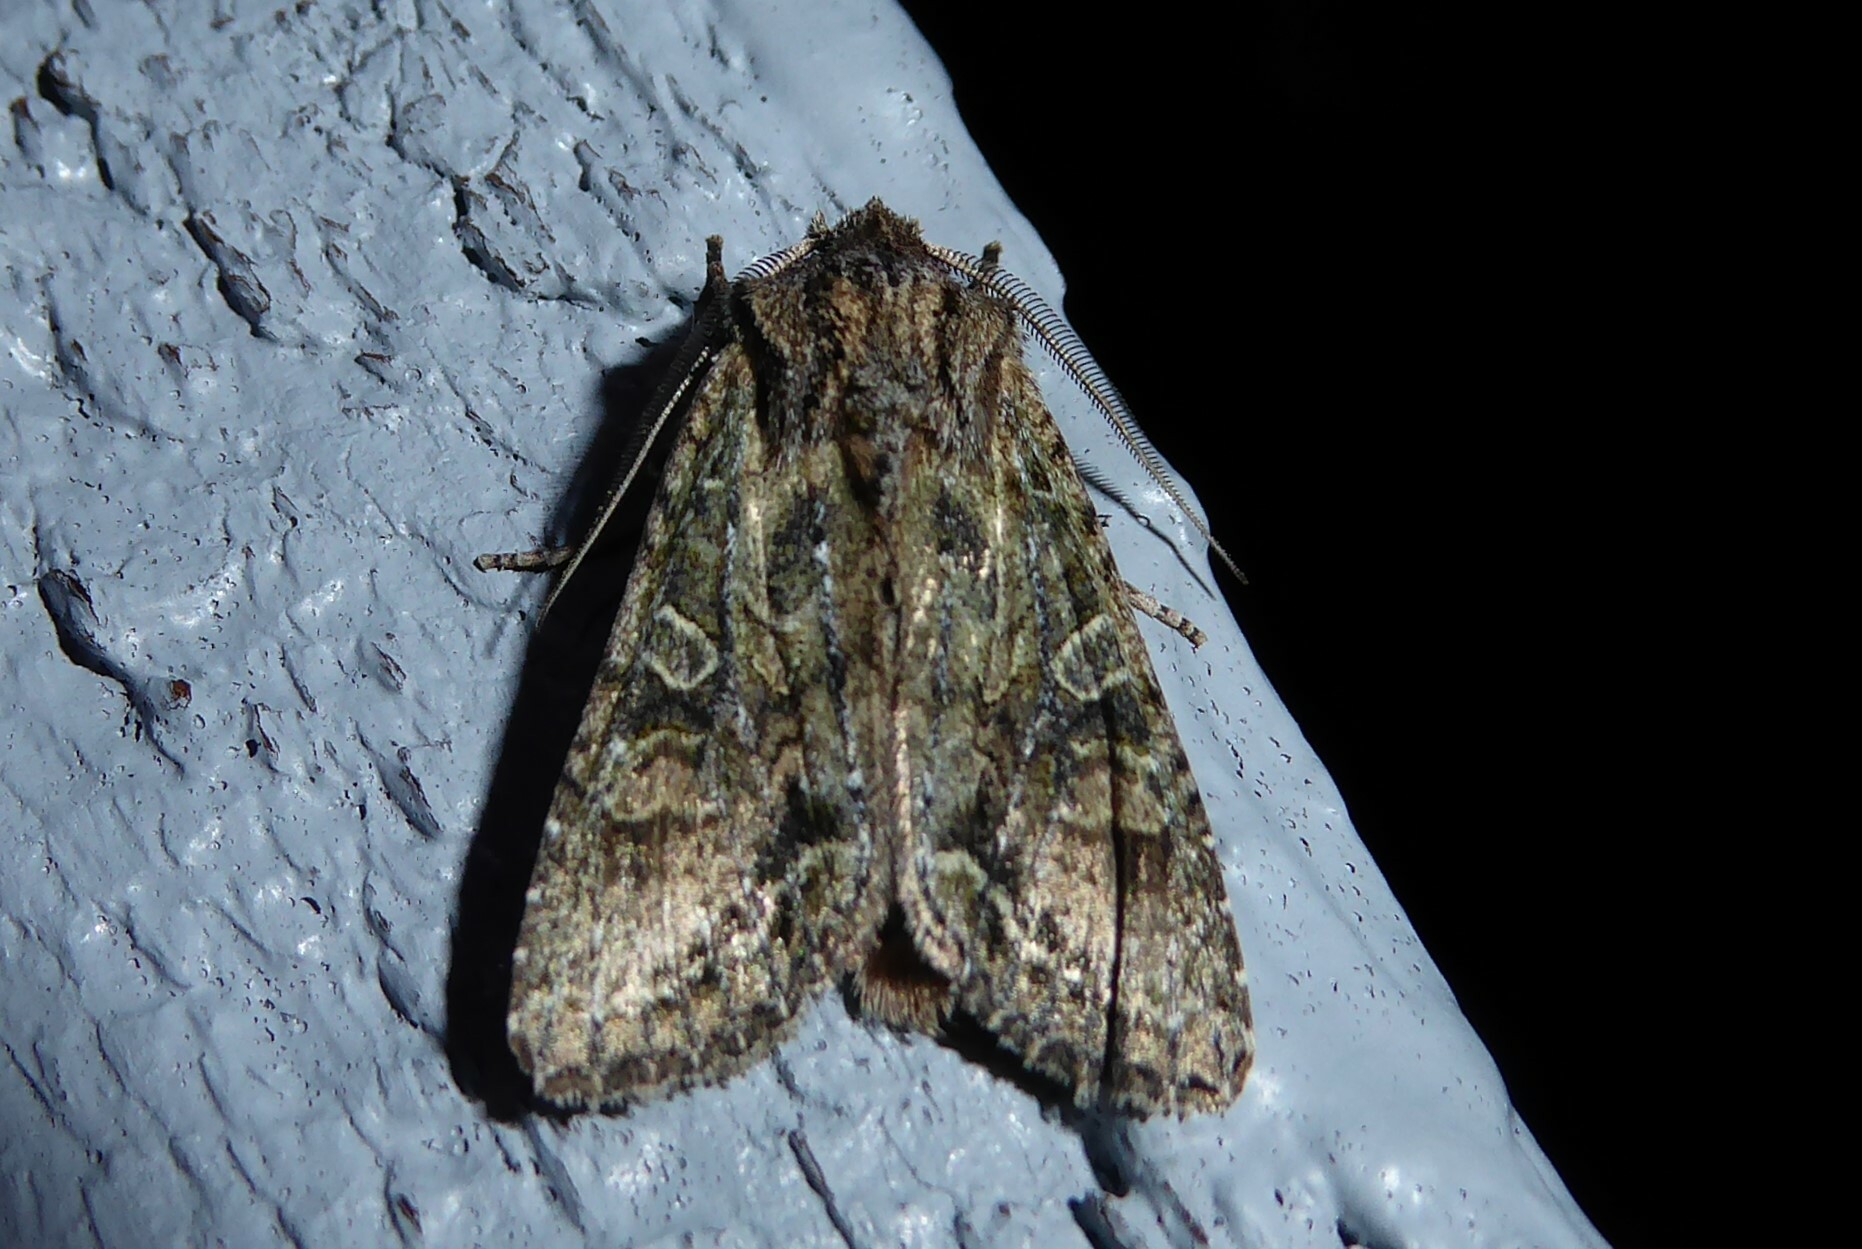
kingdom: Animalia
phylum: Arthropoda
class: Insecta
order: Lepidoptera
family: Noctuidae
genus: Ichneutica
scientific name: Ichneutica mutans
